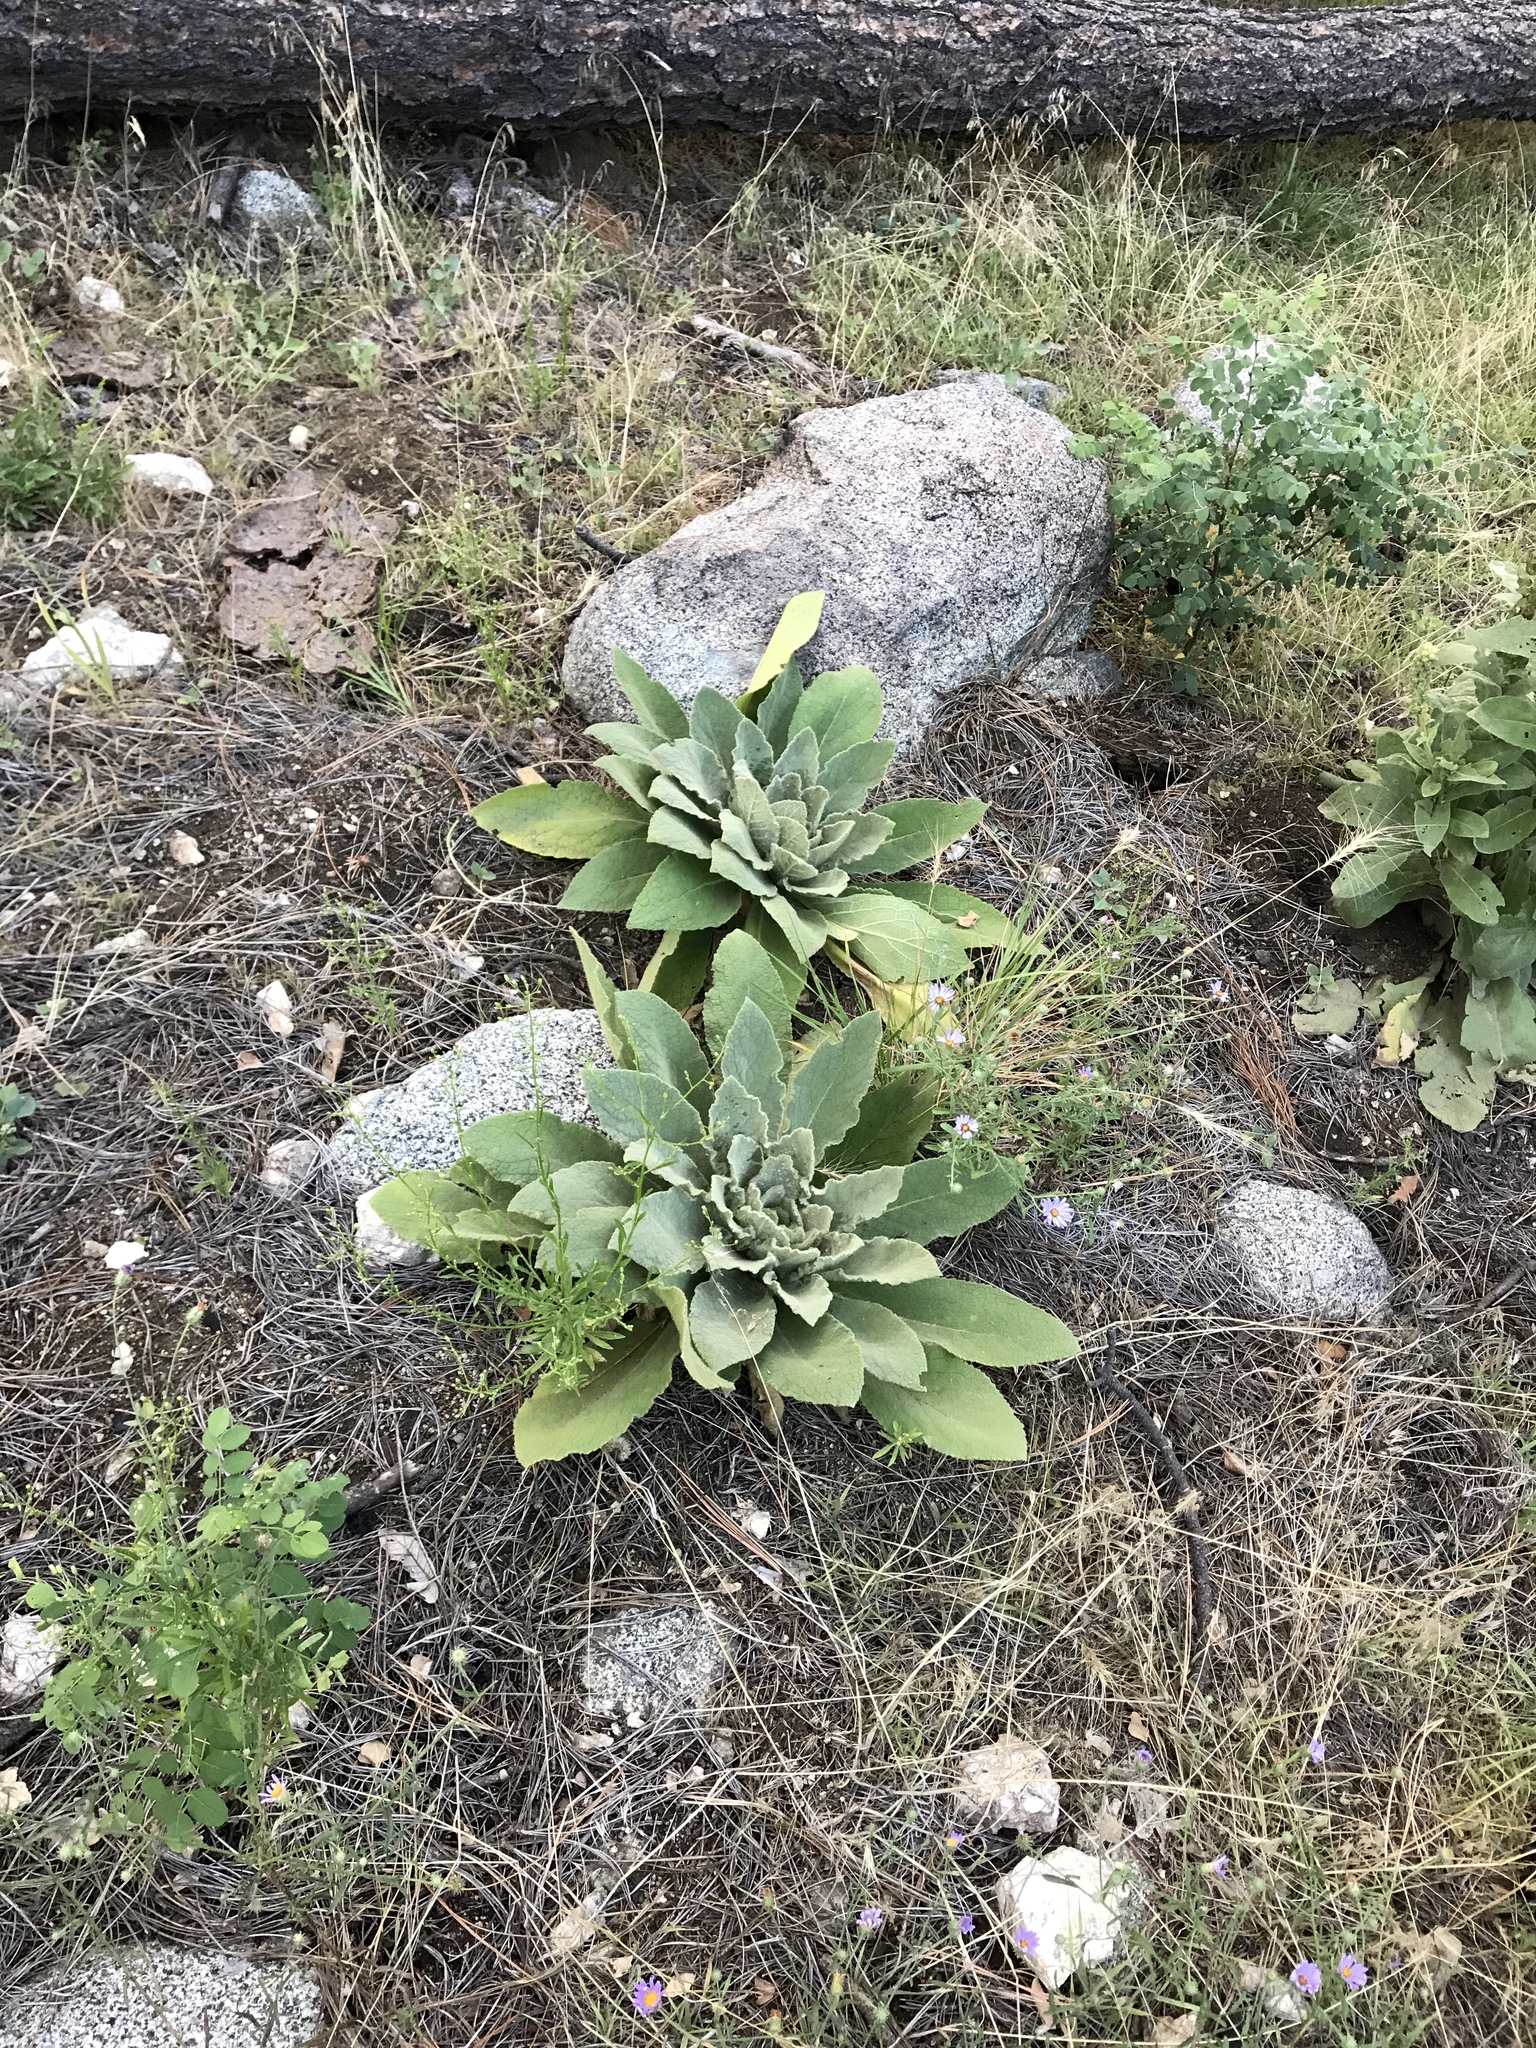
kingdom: Plantae
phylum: Tracheophyta
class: Magnoliopsida
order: Lamiales
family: Scrophulariaceae
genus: Verbascum
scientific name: Verbascum thapsus
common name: Common mullein
